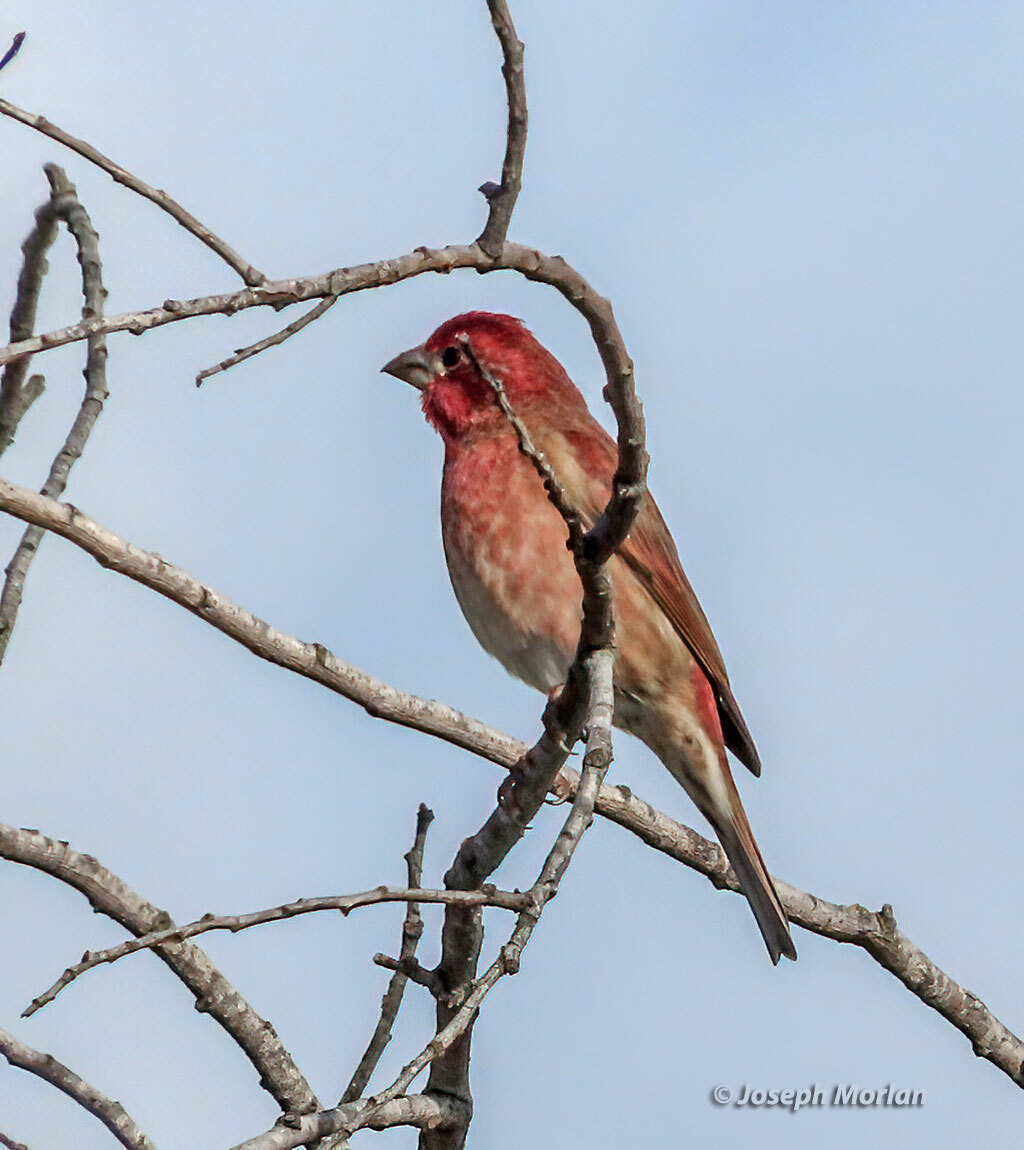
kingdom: Animalia
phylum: Chordata
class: Aves
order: Passeriformes
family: Fringillidae
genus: Haemorhous
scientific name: Haemorhous purpureus
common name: Purple finch
